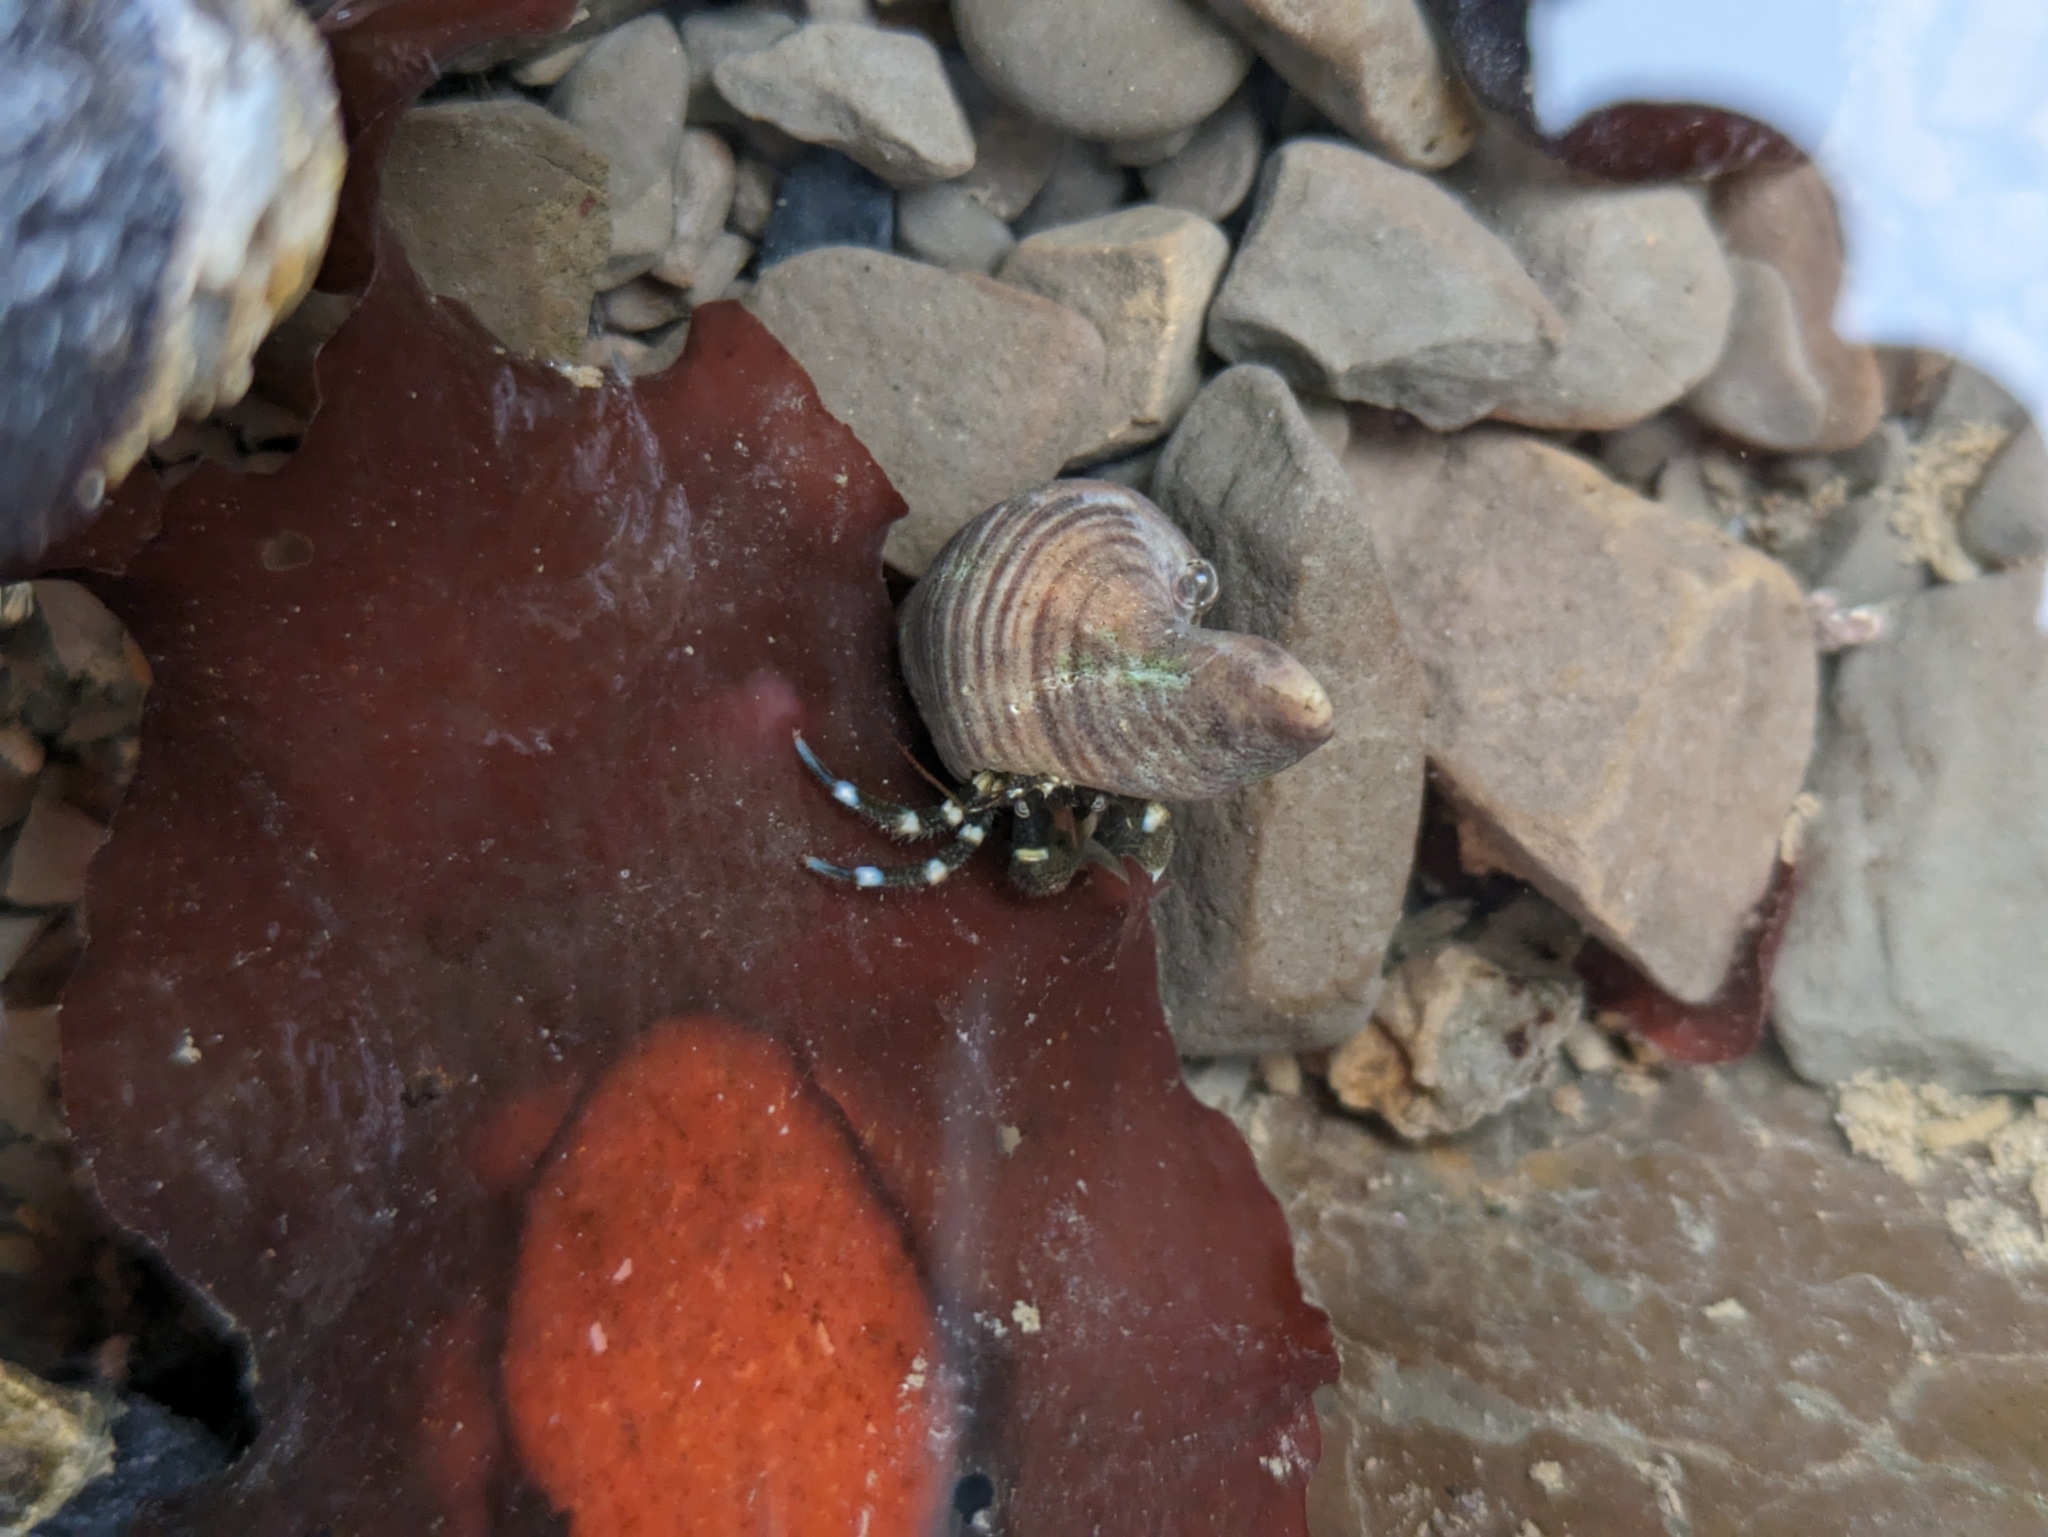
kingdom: Animalia
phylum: Arthropoda
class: Malacostraca
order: Decapoda
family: Paguridae
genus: Pagurus
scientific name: Pagurus samuelis
